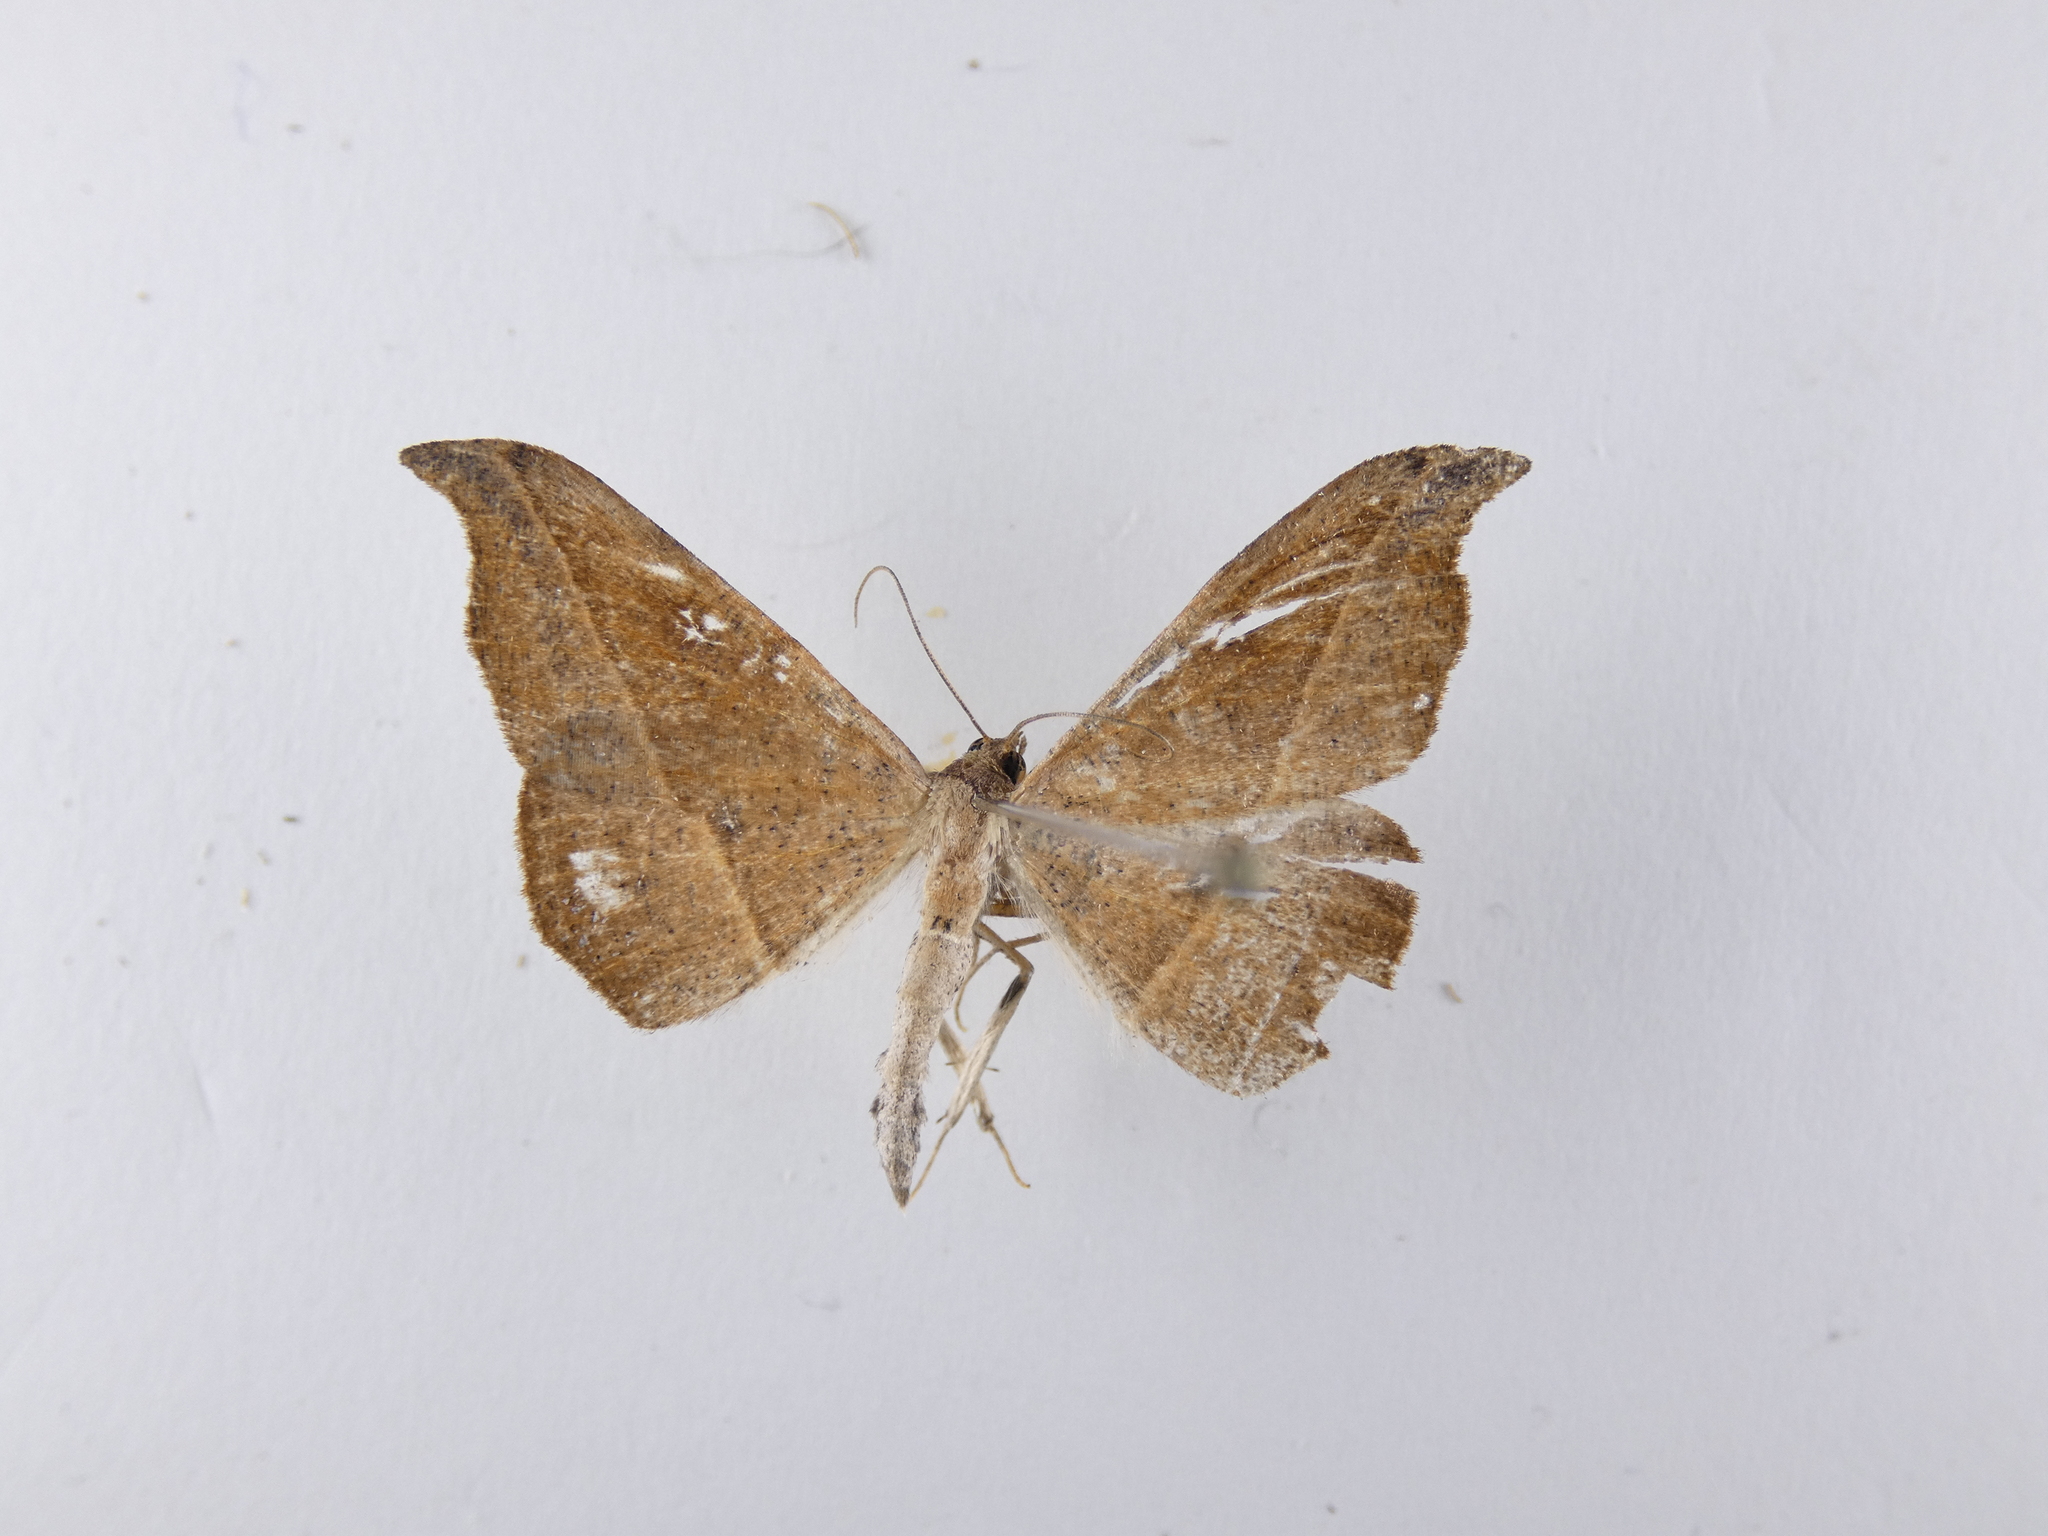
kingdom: Animalia
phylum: Arthropoda
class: Insecta
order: Lepidoptera
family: Geometridae
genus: Sarisa
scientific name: Sarisa muriferata
